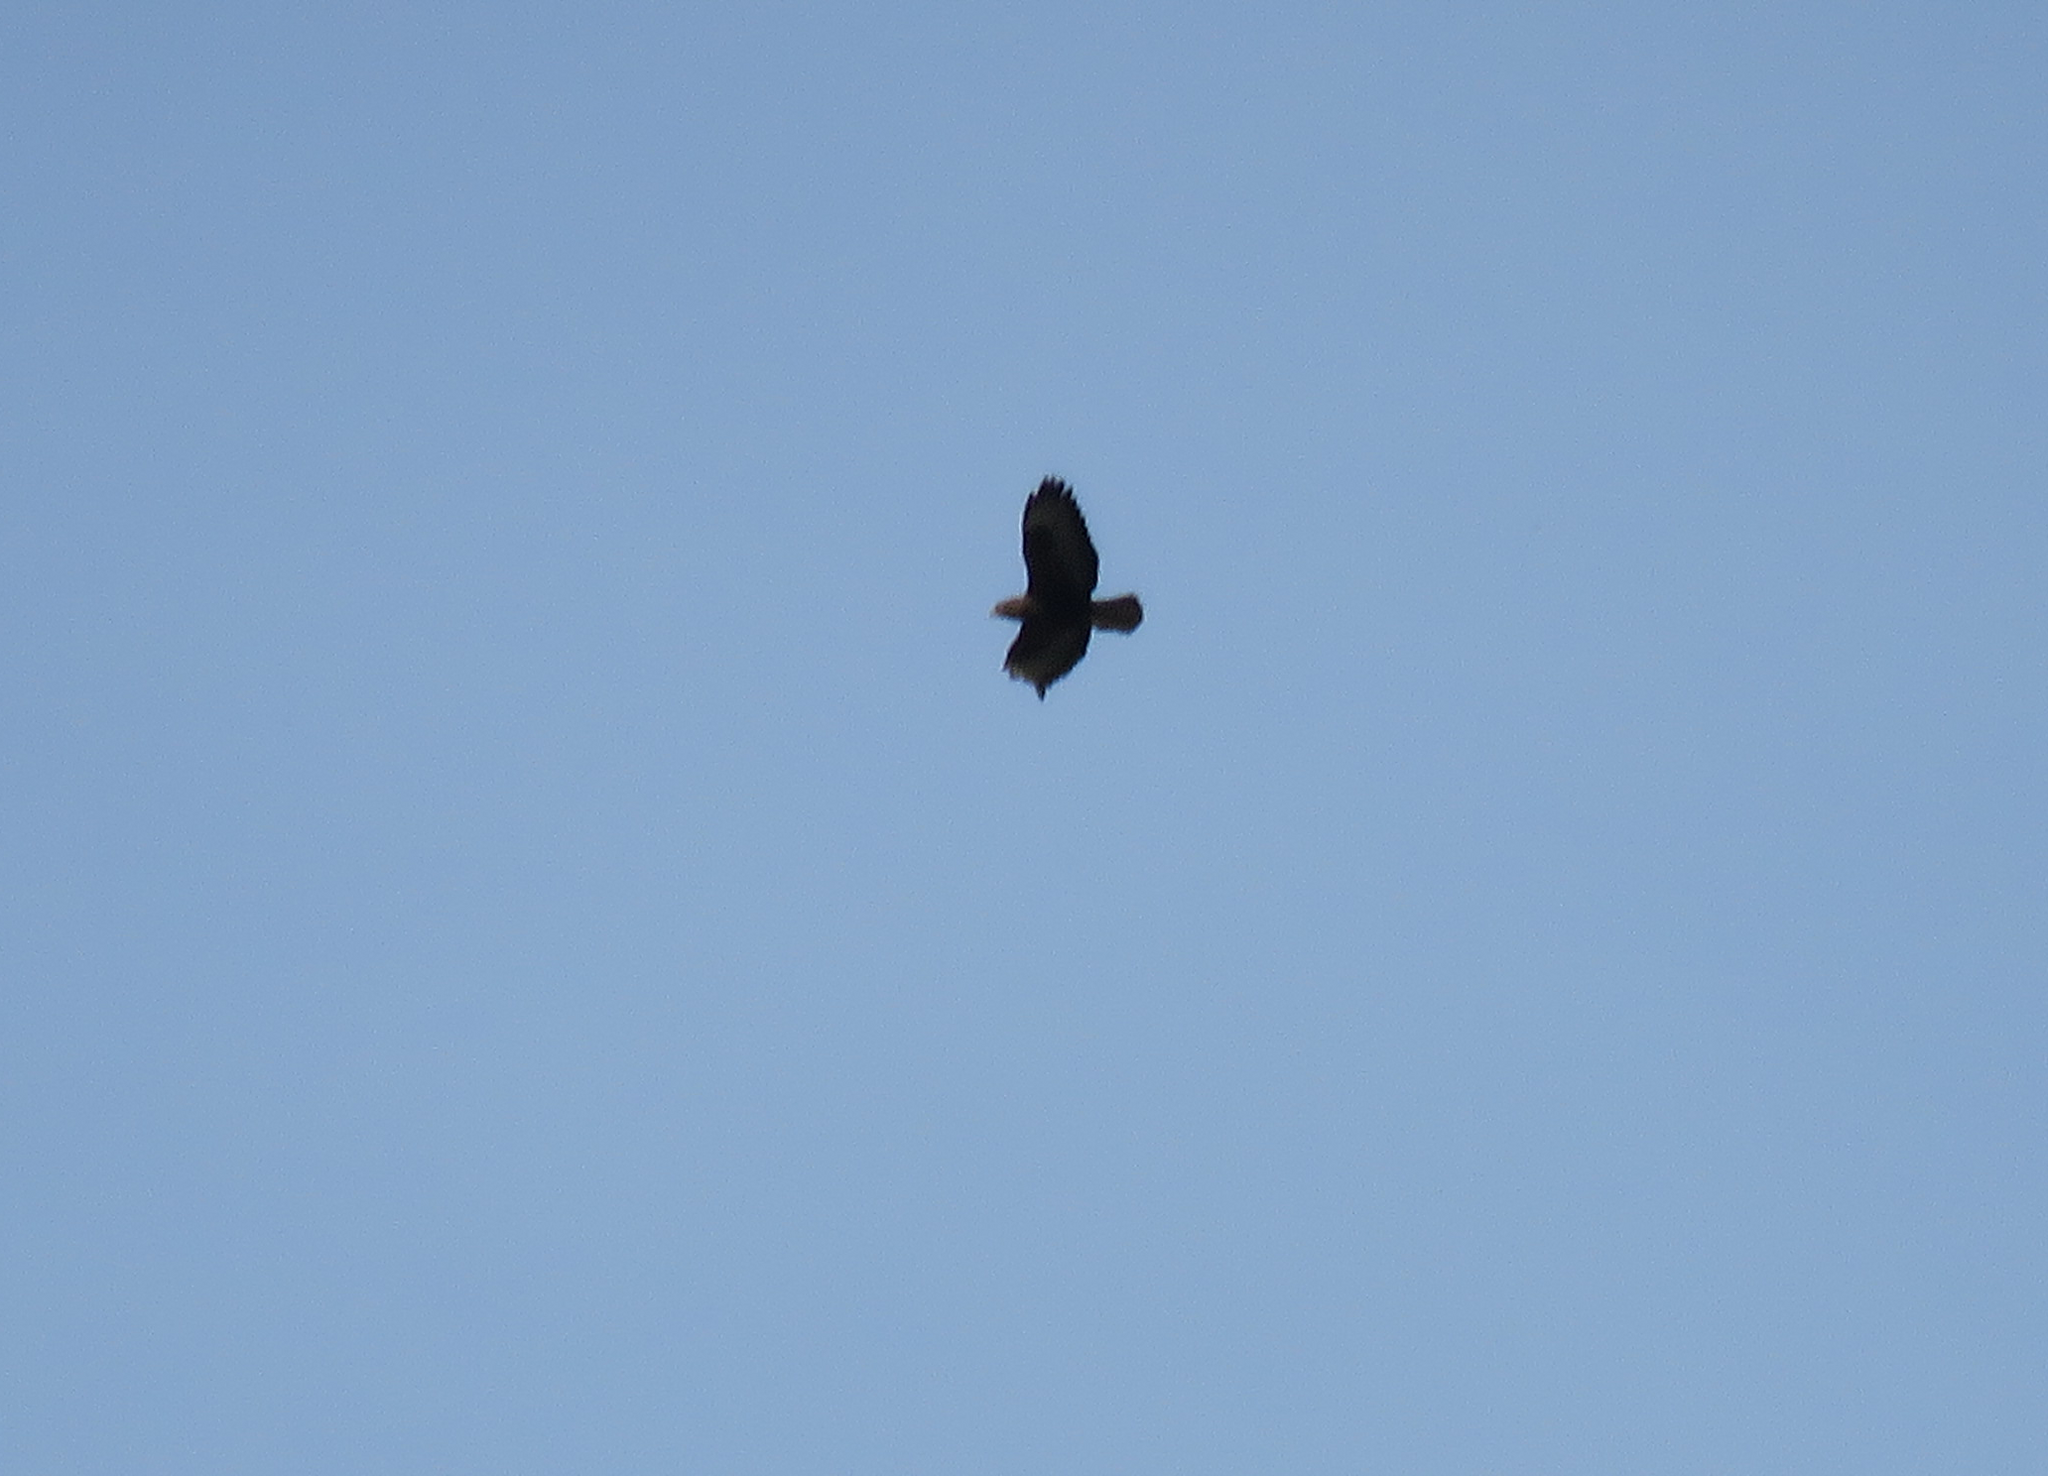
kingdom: Animalia
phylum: Chordata
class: Aves
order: Accipitriformes
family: Accipitridae
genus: Buteo
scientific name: Buteo buteo
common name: Common buzzard
